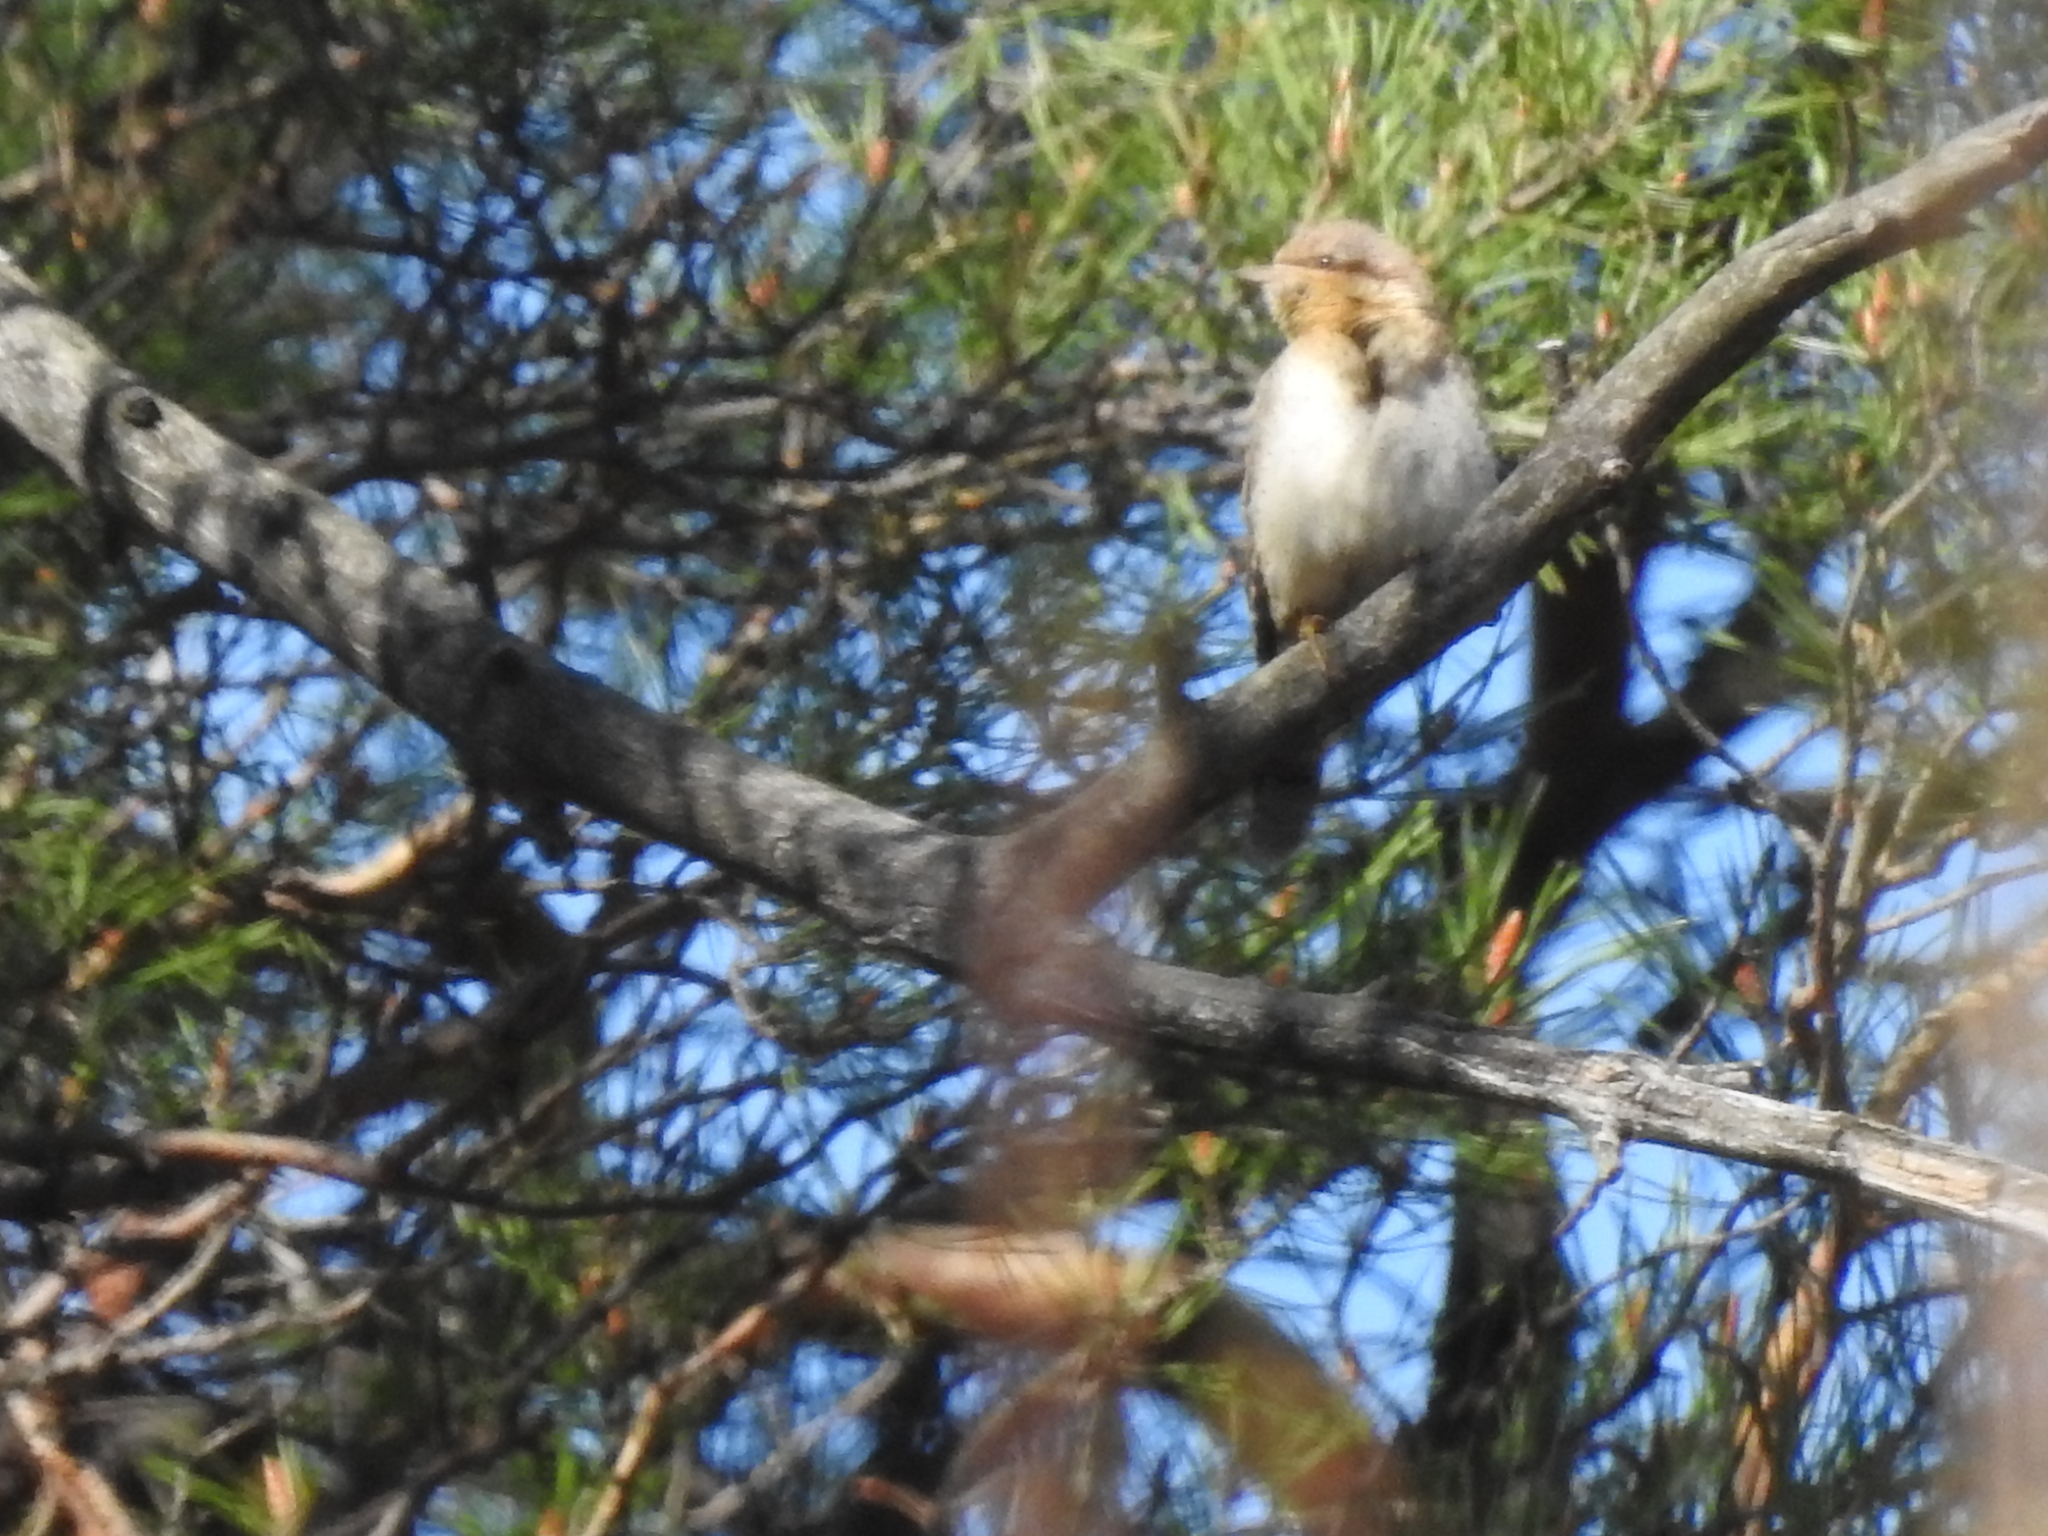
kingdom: Animalia
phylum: Chordata
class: Aves
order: Piciformes
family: Picidae
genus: Jynx
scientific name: Jynx torquilla
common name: Eurasian wryneck
